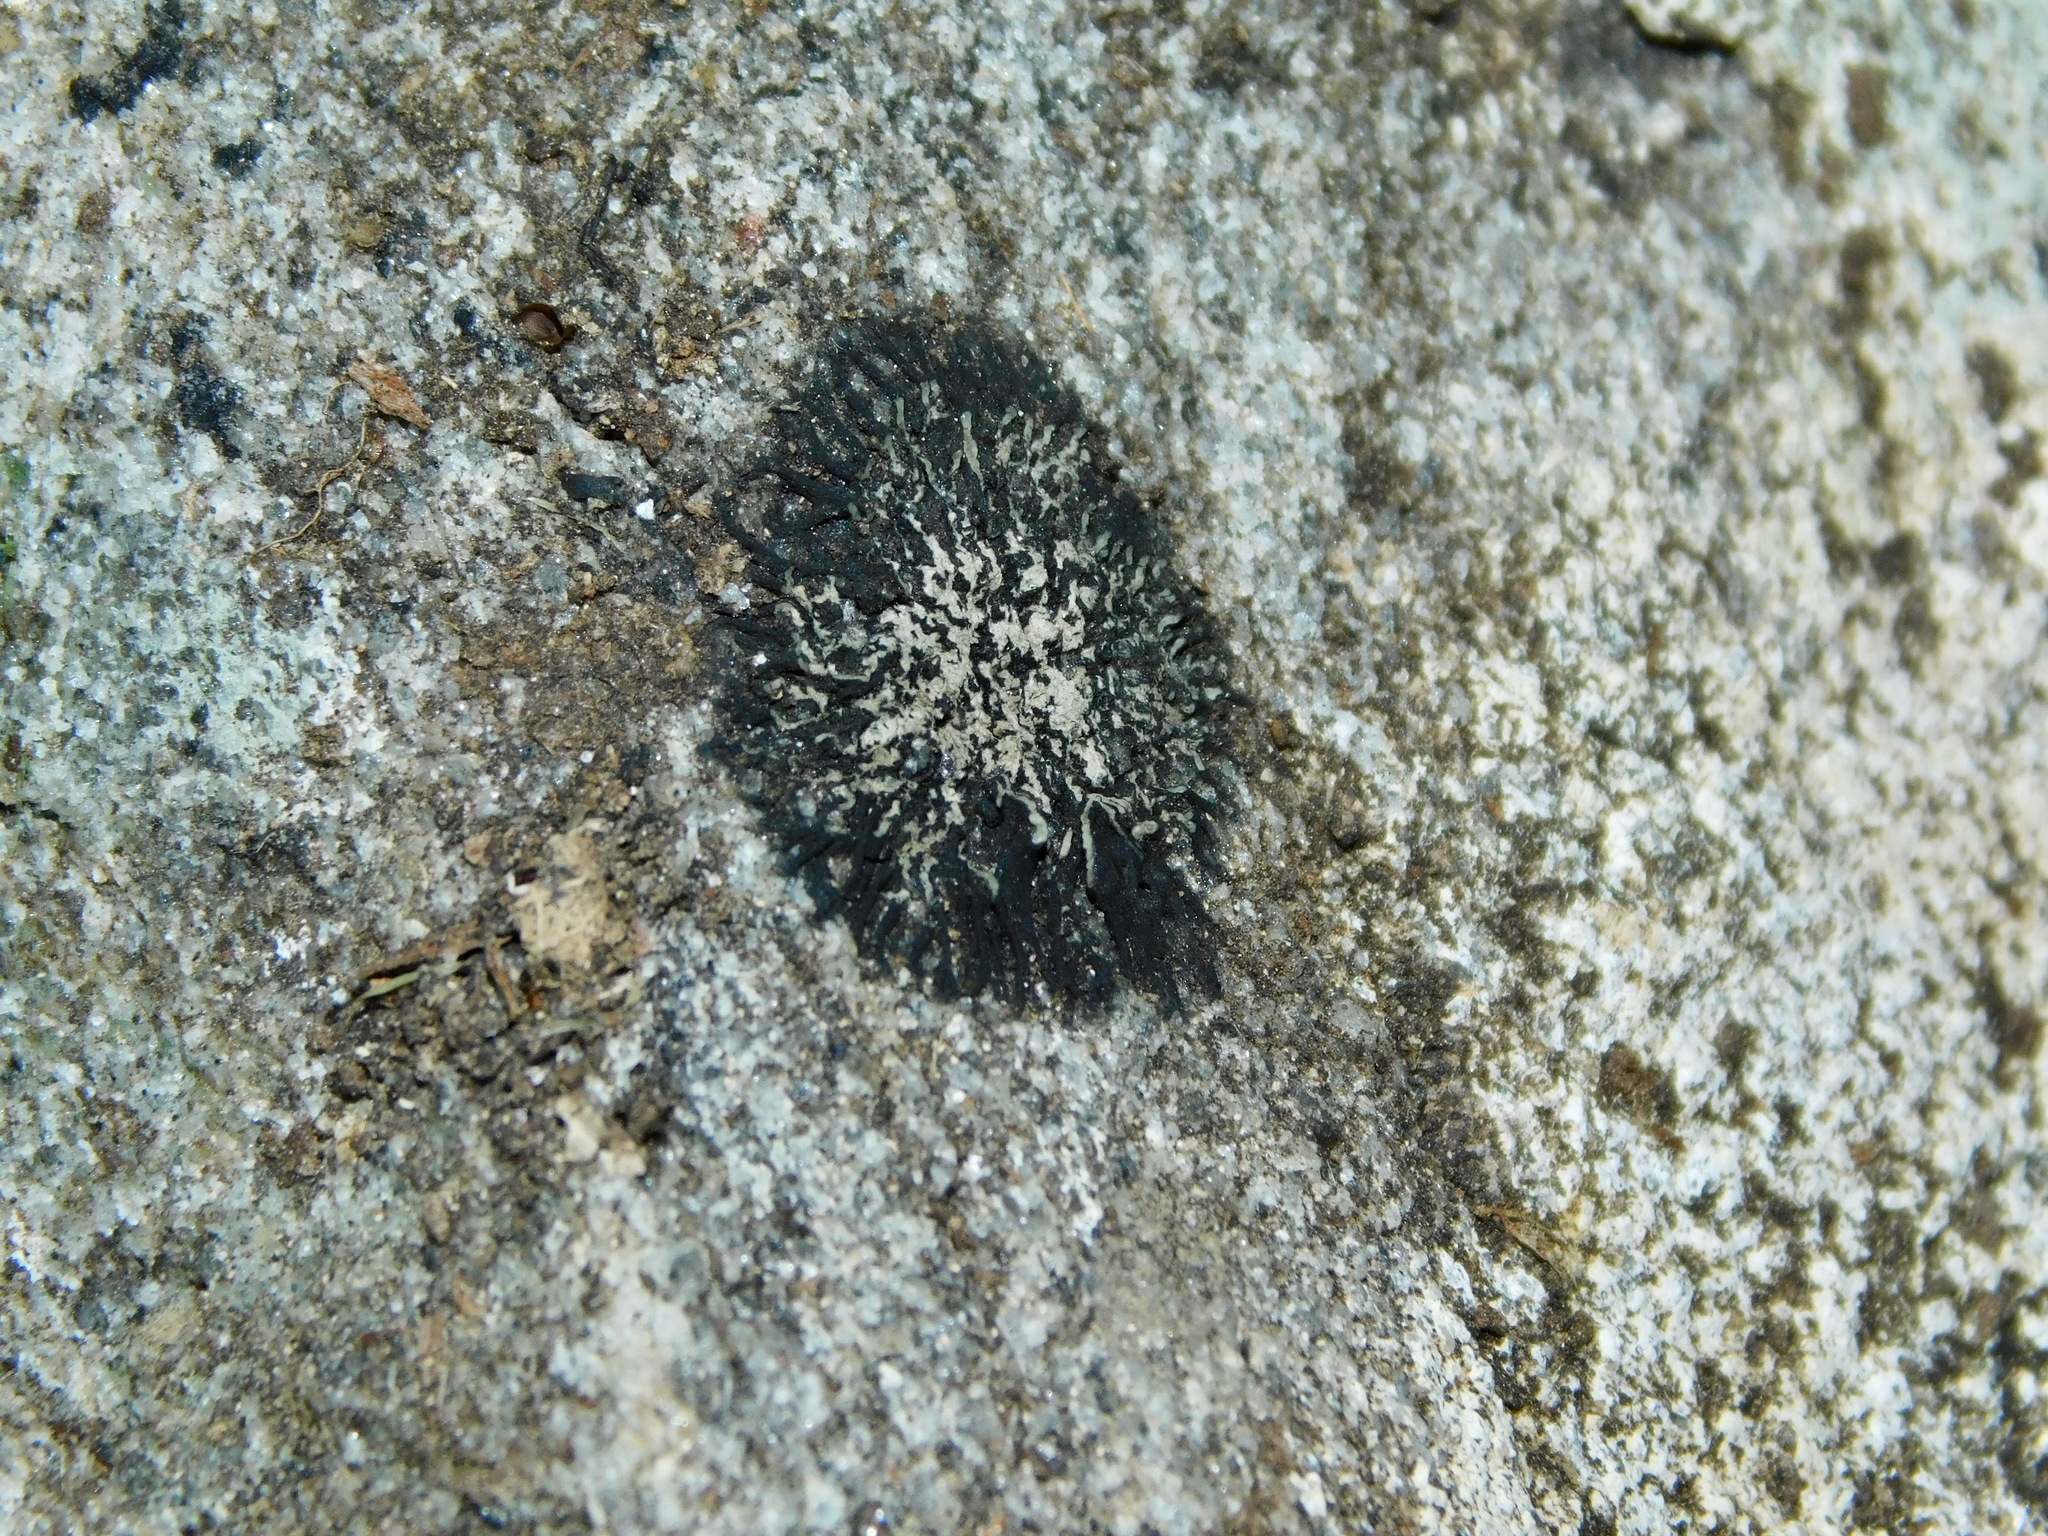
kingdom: Fungi
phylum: Ascomycota
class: Lecanoromycetes
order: Lecanorales
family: Parmeliaceae
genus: Hypogymnia
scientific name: Hypogymnia austerodes
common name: Varnished tube lichen
